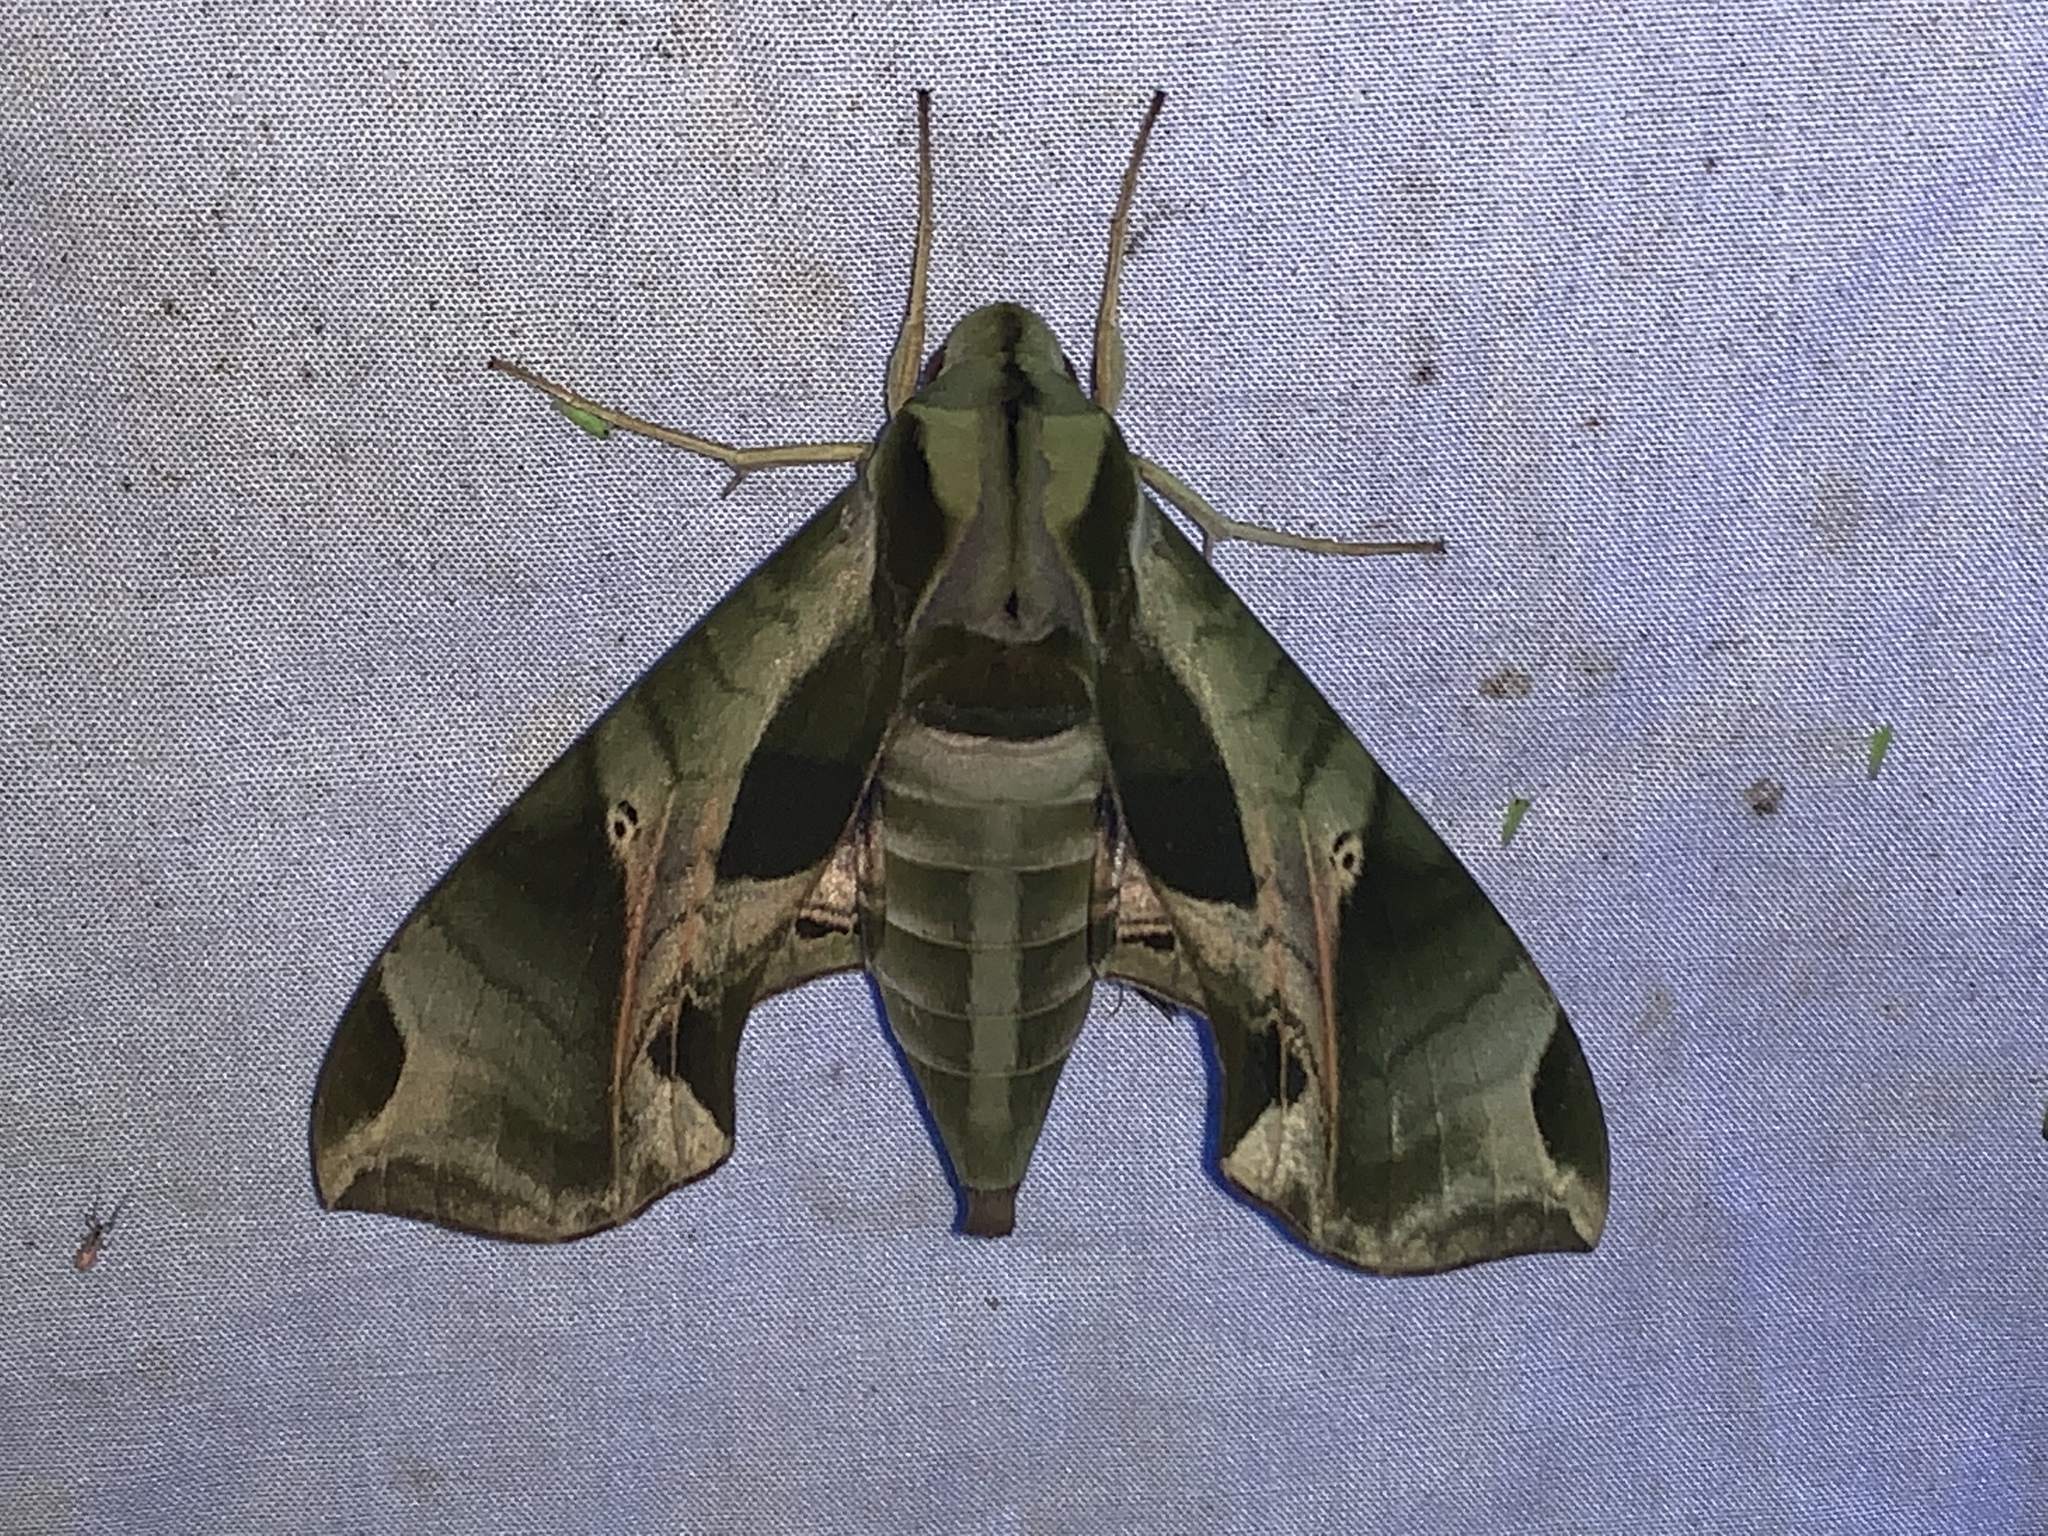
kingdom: Animalia
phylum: Arthropoda
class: Insecta
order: Lepidoptera
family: Sphingidae
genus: Eumorpha
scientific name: Eumorpha pandorus
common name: Pandora sphinx
